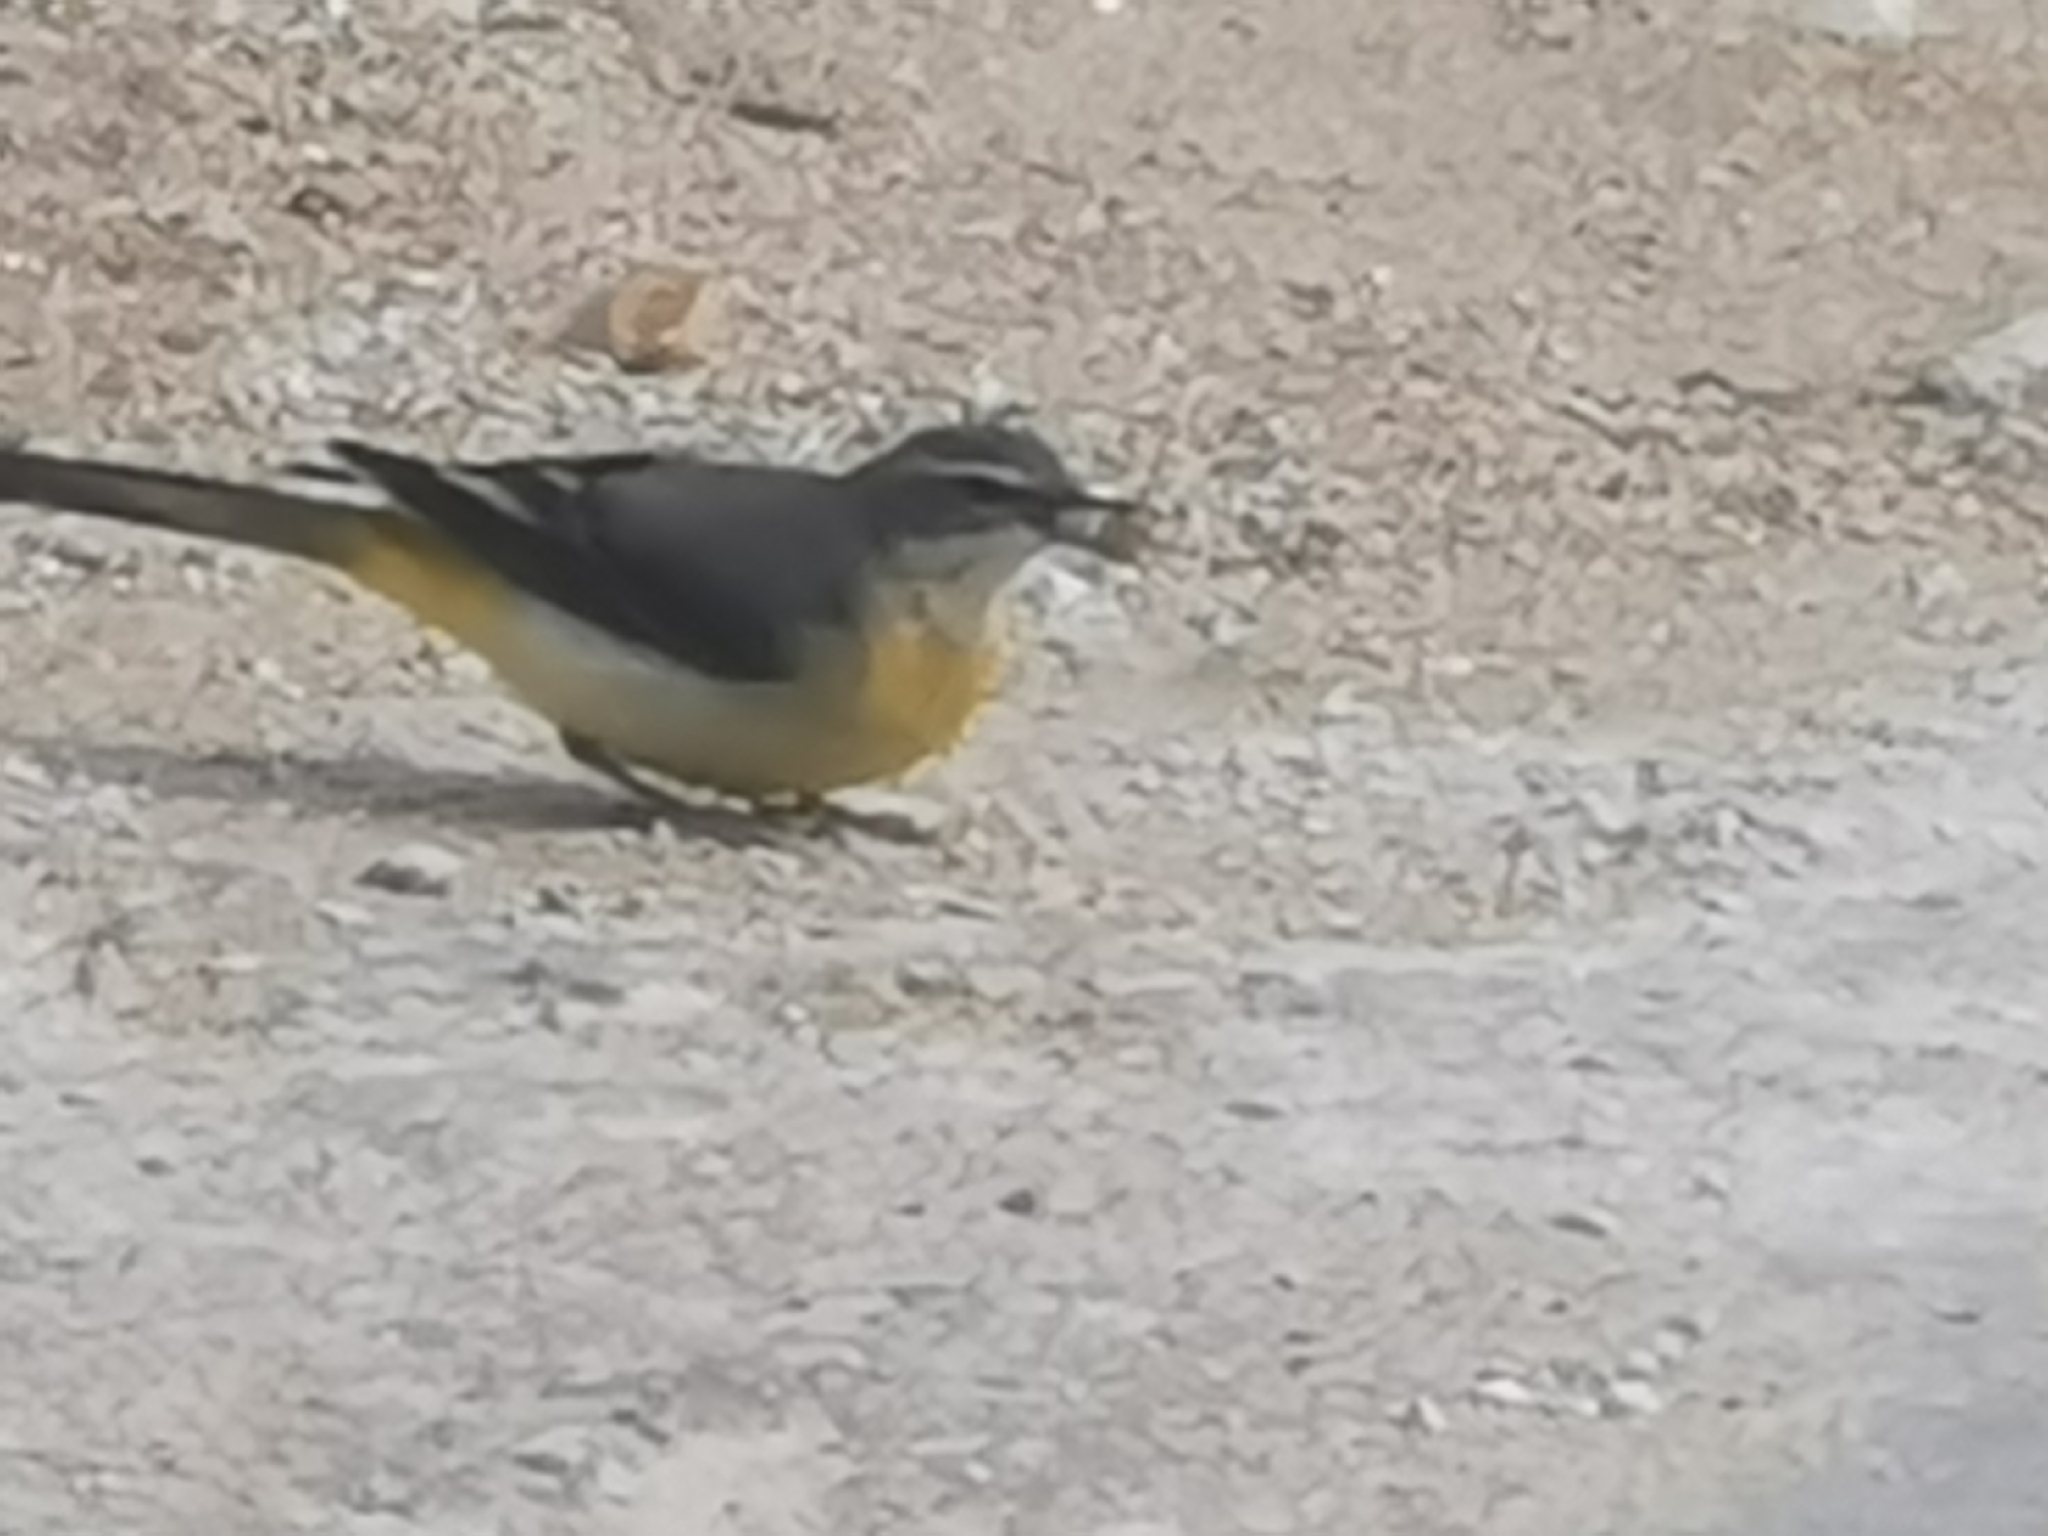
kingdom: Animalia
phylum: Chordata
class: Aves
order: Passeriformes
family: Motacillidae
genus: Motacilla
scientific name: Motacilla cinerea
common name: Grey wagtail
